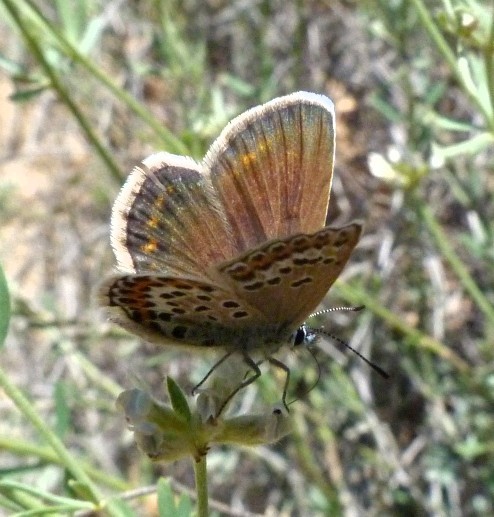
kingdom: Animalia
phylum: Arthropoda
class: Insecta
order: Lepidoptera
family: Lycaenidae
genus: Plebejus
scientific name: Plebejus argus
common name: Silver-studded blue
